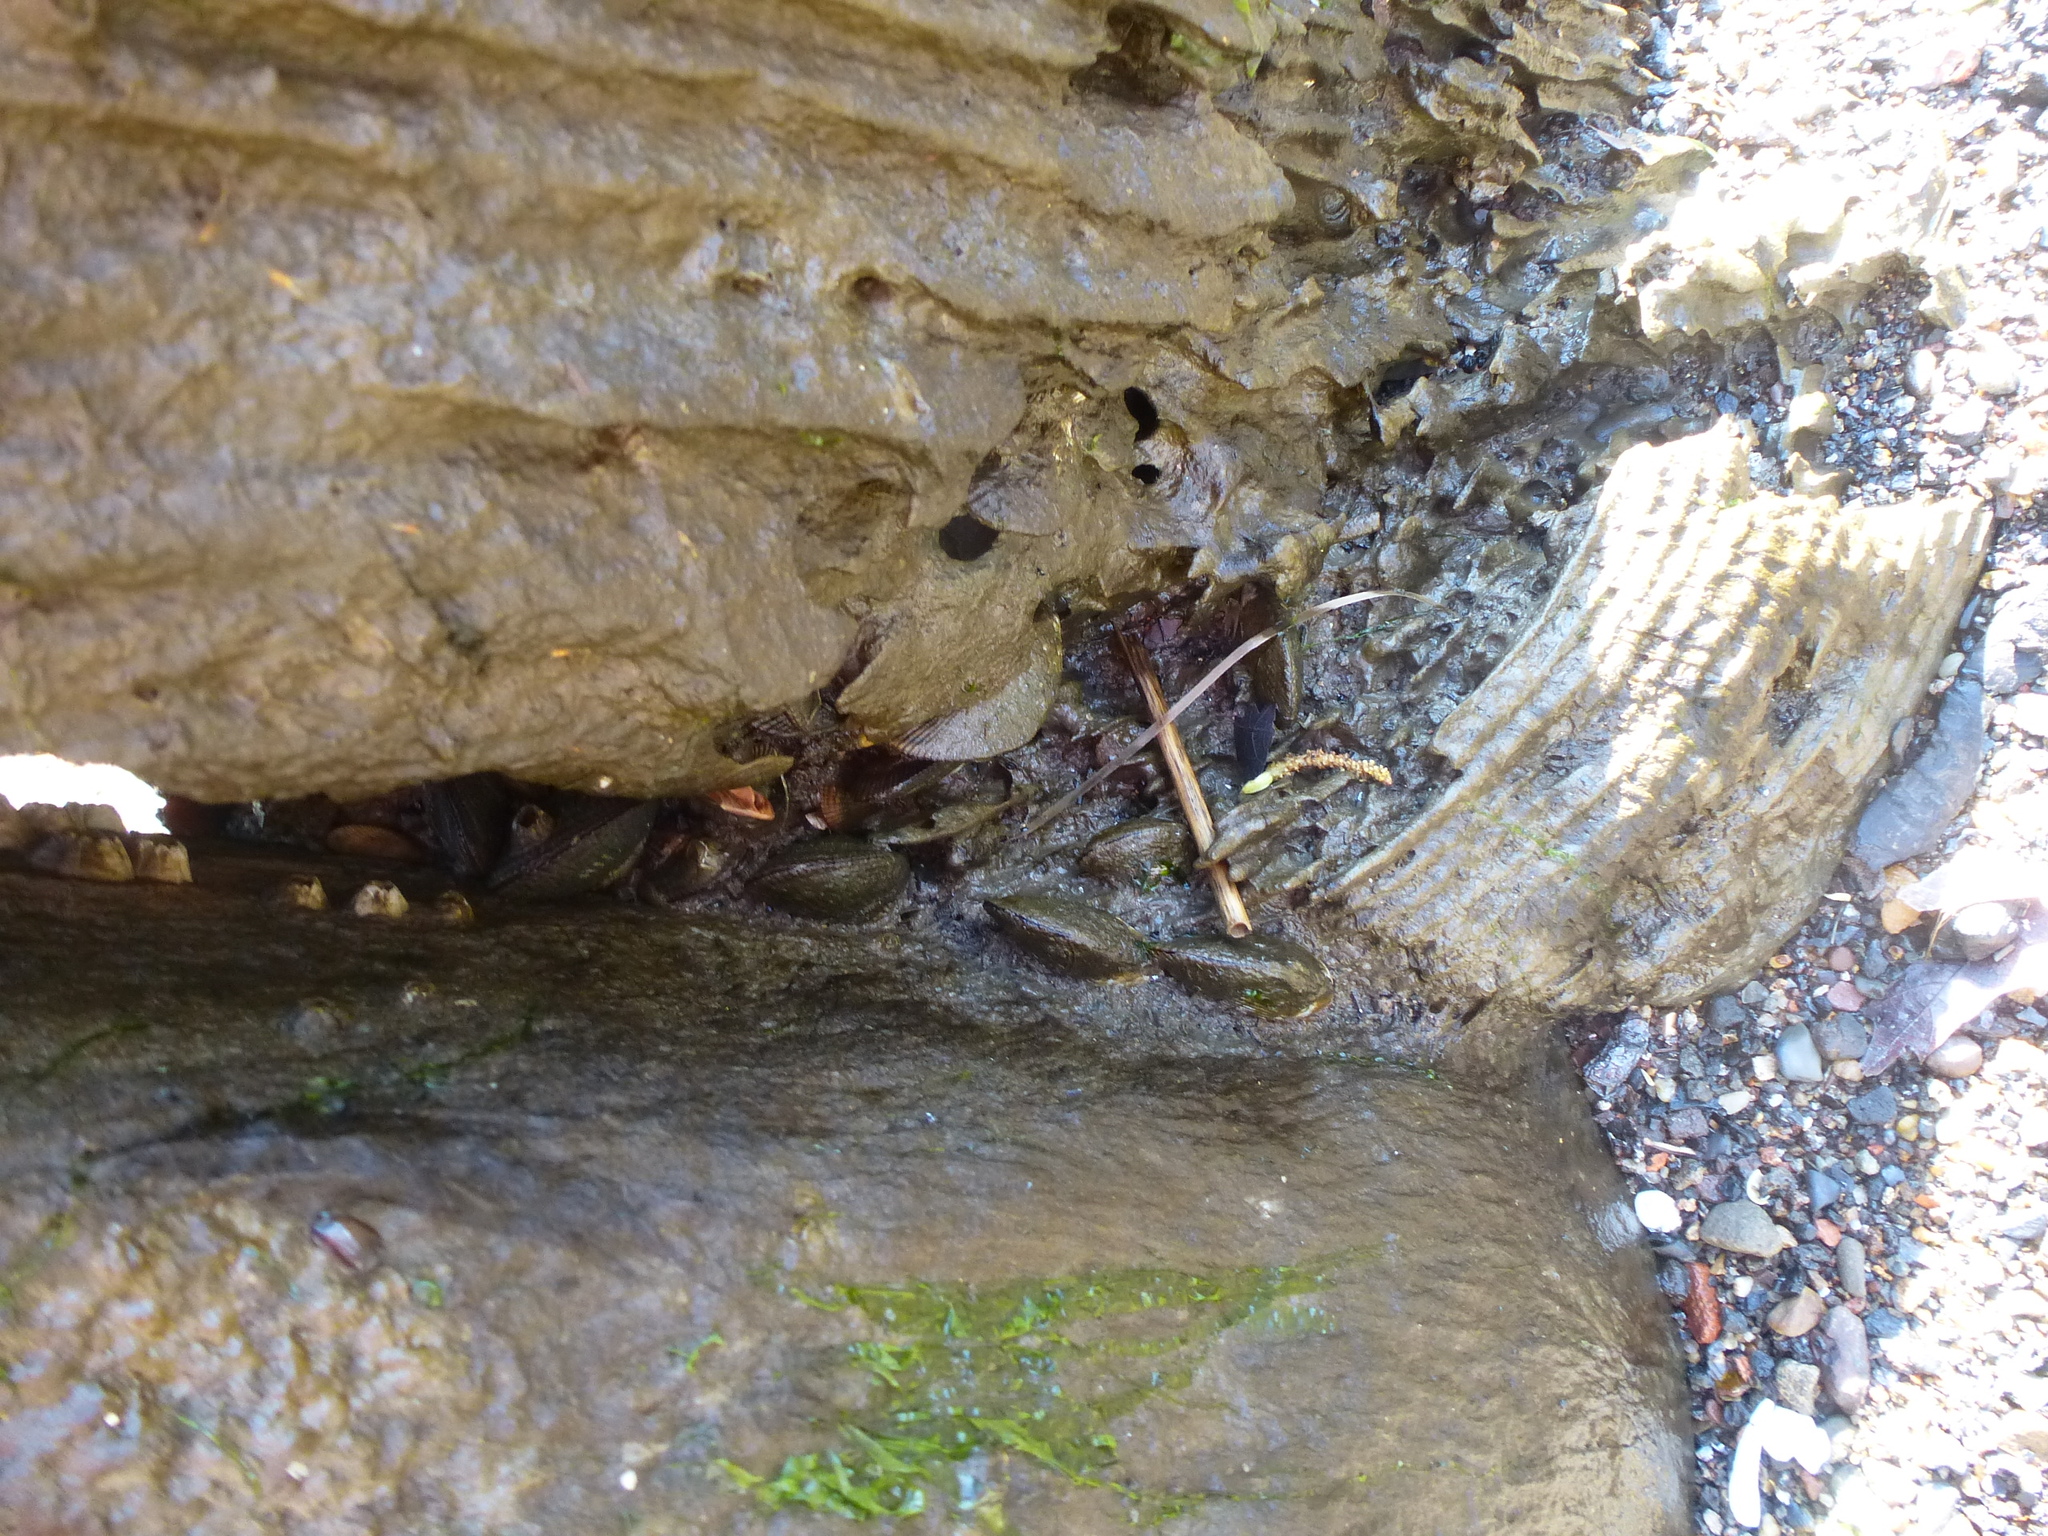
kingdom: Animalia
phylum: Mollusca
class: Bivalvia
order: Mytilida
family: Mytilidae
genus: Geukensia
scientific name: Geukensia demissa
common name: Ribbed mussel
